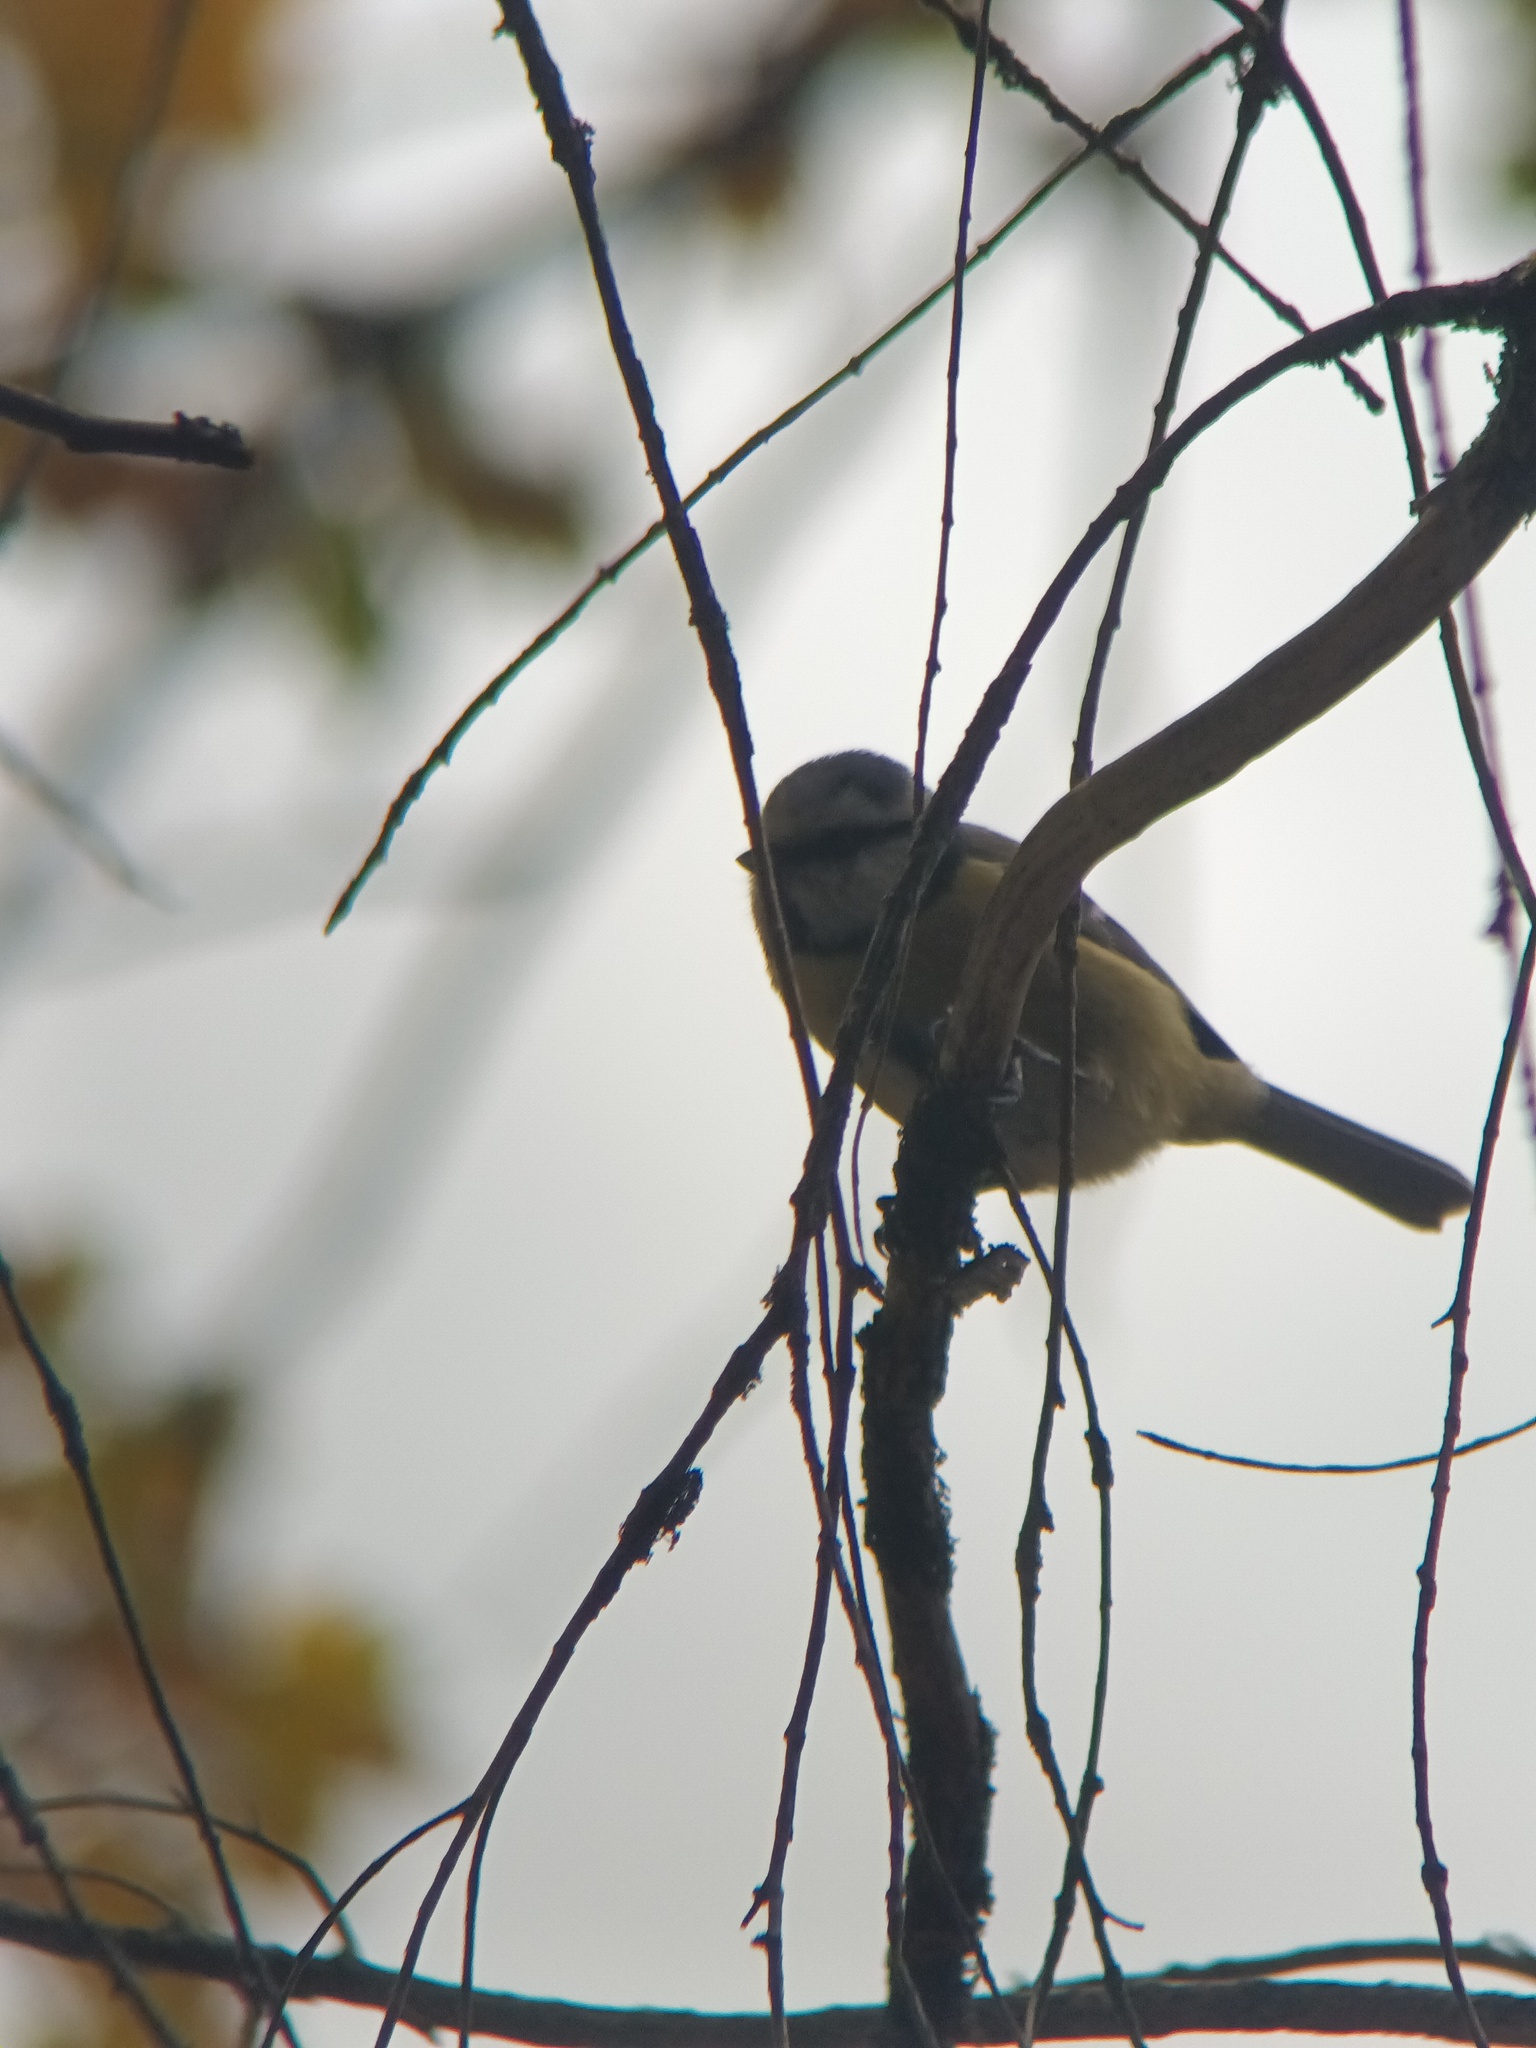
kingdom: Animalia
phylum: Chordata
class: Aves
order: Passeriformes
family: Paridae
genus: Cyanistes
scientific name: Cyanistes caeruleus
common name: Eurasian blue tit
